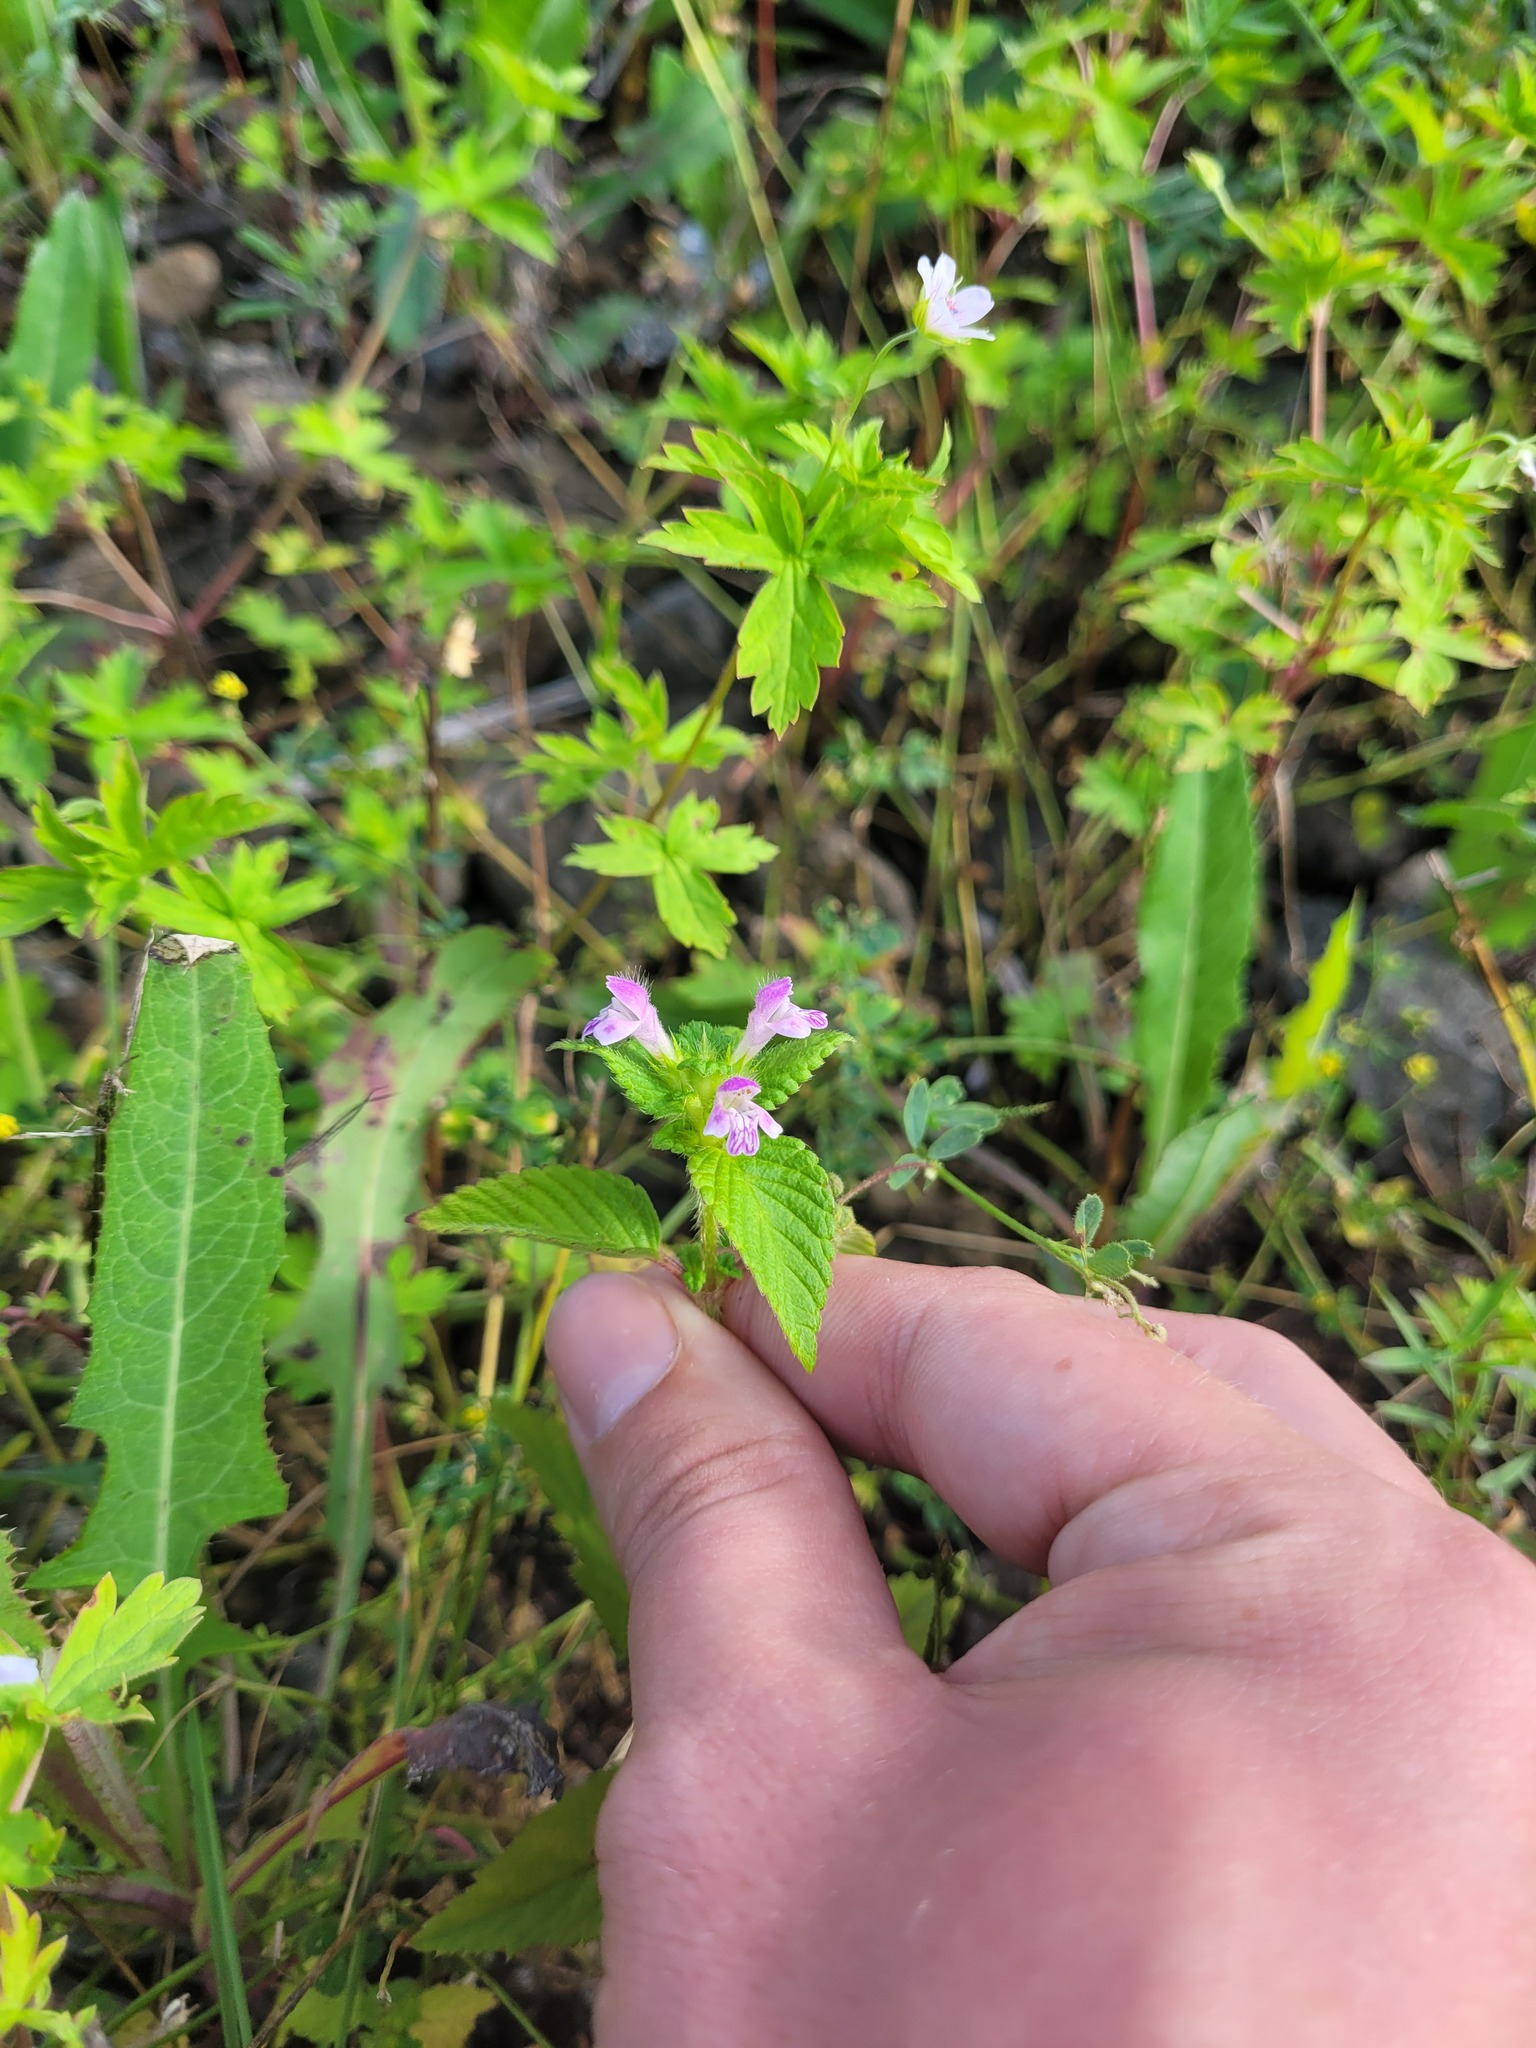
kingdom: Plantae
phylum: Tracheophyta
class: Magnoliopsida
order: Lamiales
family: Lamiaceae
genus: Galeopsis
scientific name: Galeopsis bifida
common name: Bifid hemp-nettle
